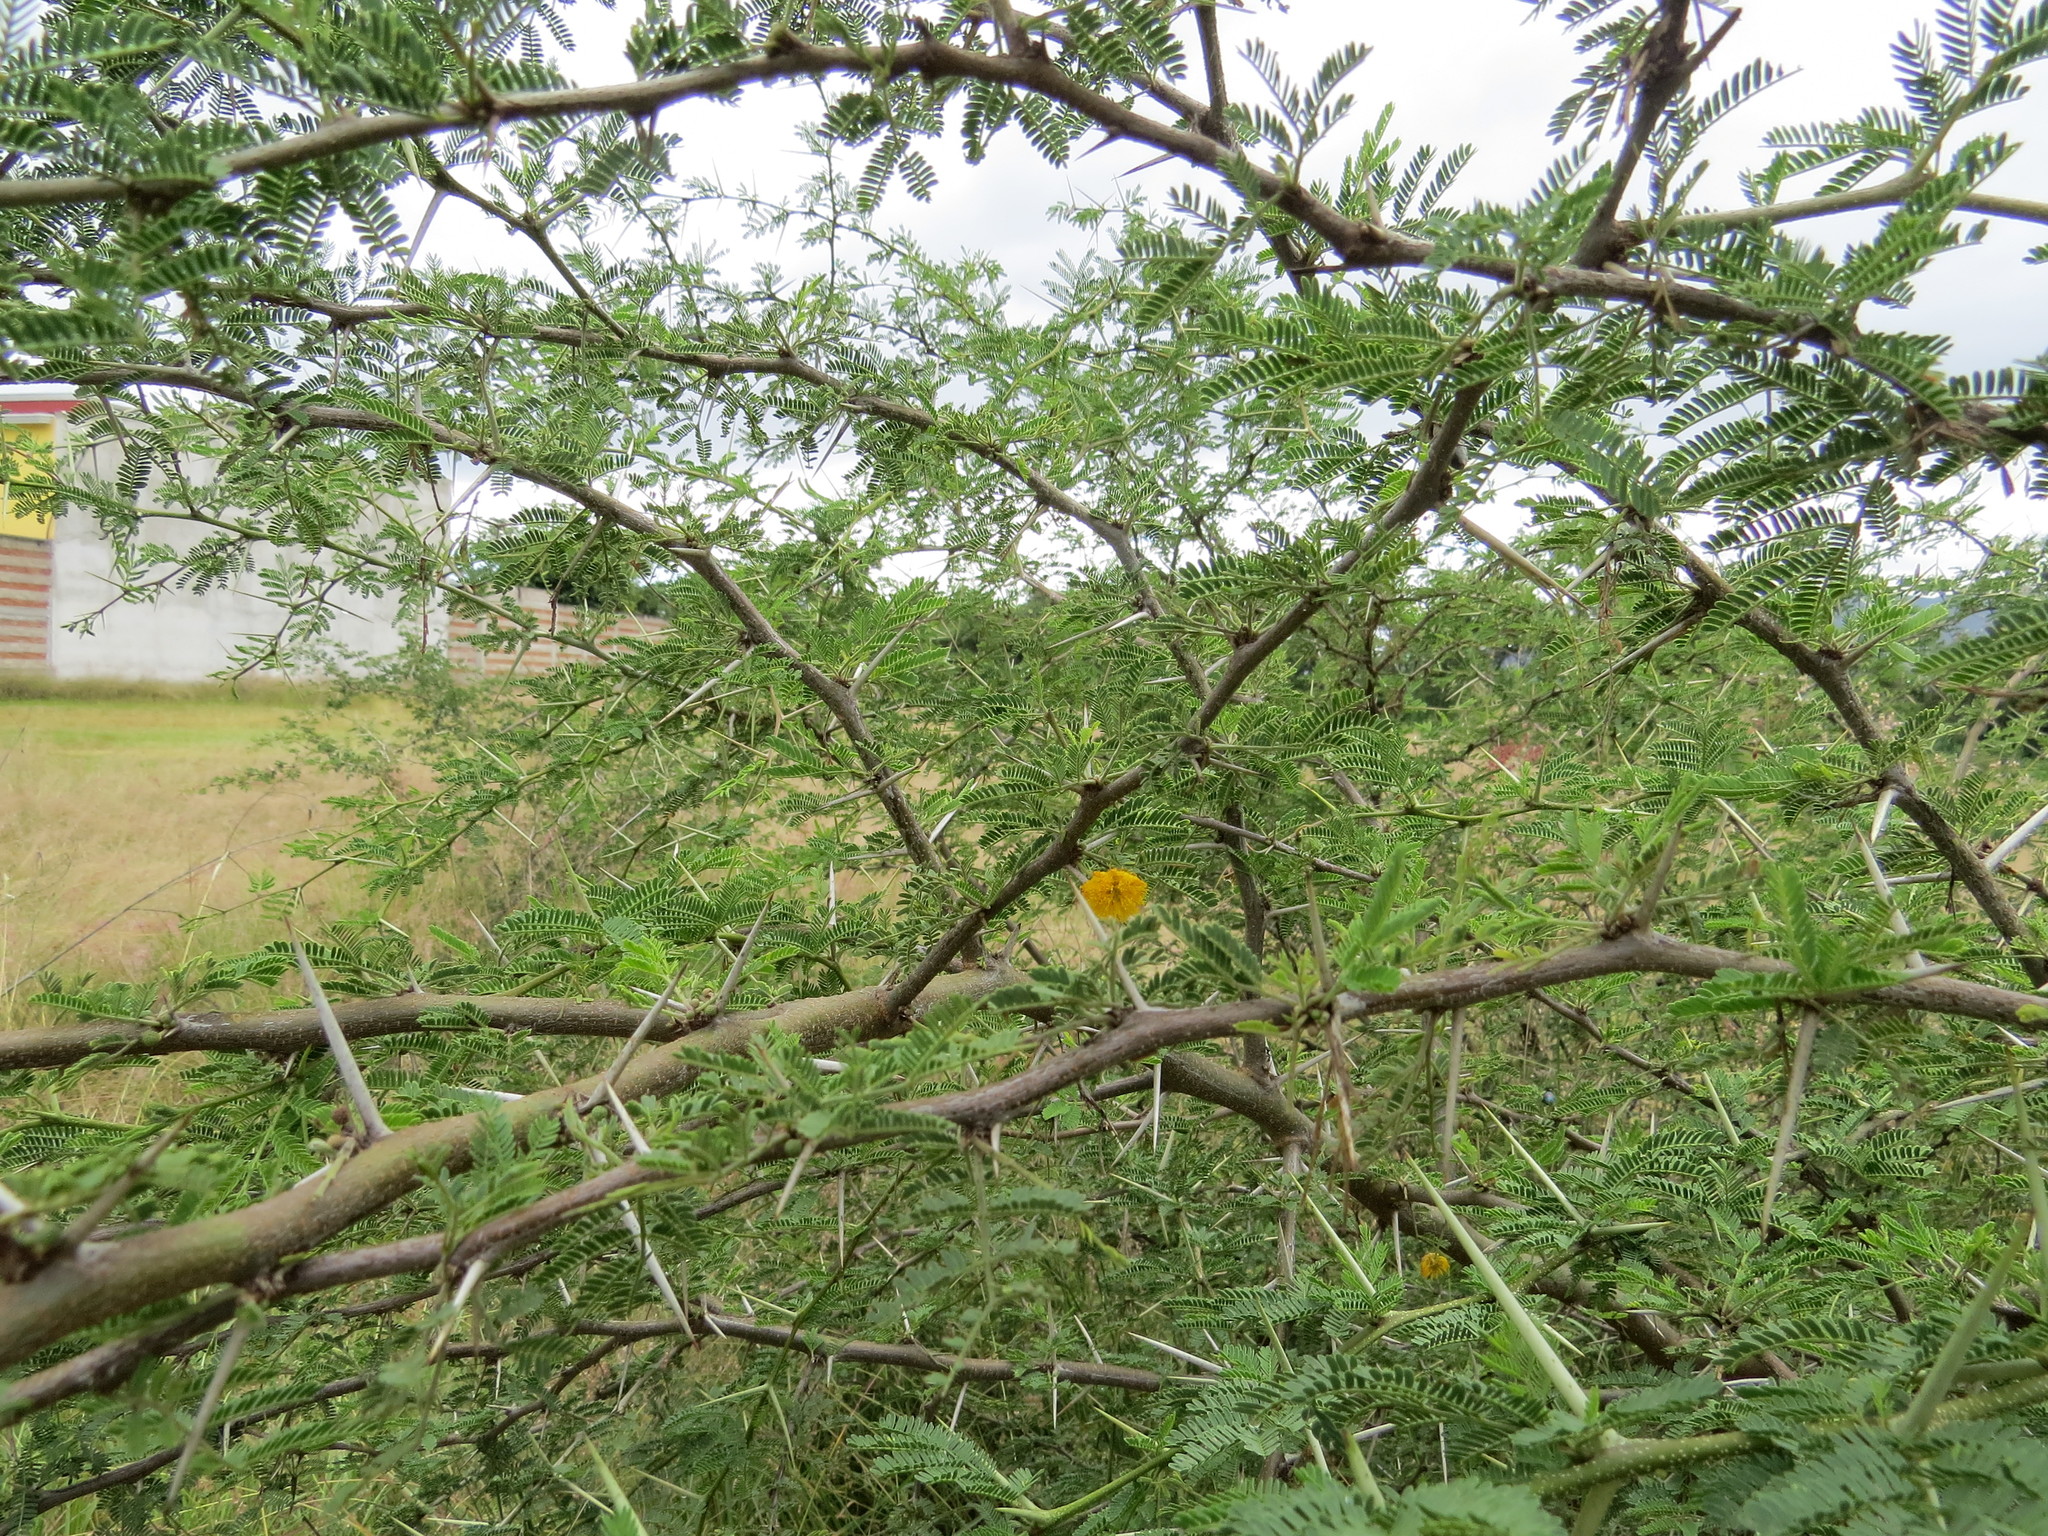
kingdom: Plantae
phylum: Tracheophyta
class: Magnoliopsida
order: Fabales
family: Fabaceae
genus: Vachellia
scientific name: Vachellia farnesiana
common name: Sweet acacia
